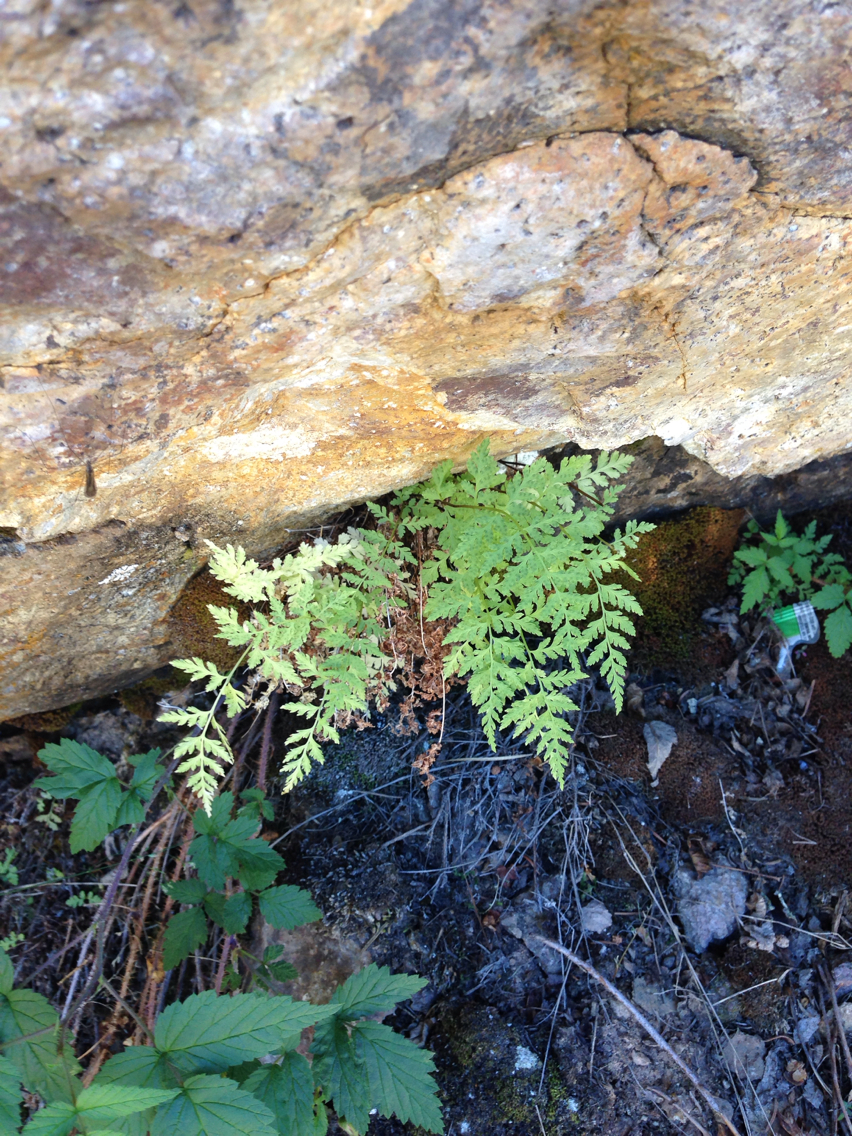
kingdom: Plantae
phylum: Tracheophyta
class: Polypodiopsida
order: Polypodiales
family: Cystopteridaceae
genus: Cystopteris
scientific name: Cystopteris fragilis
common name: Brittle bladder fern
